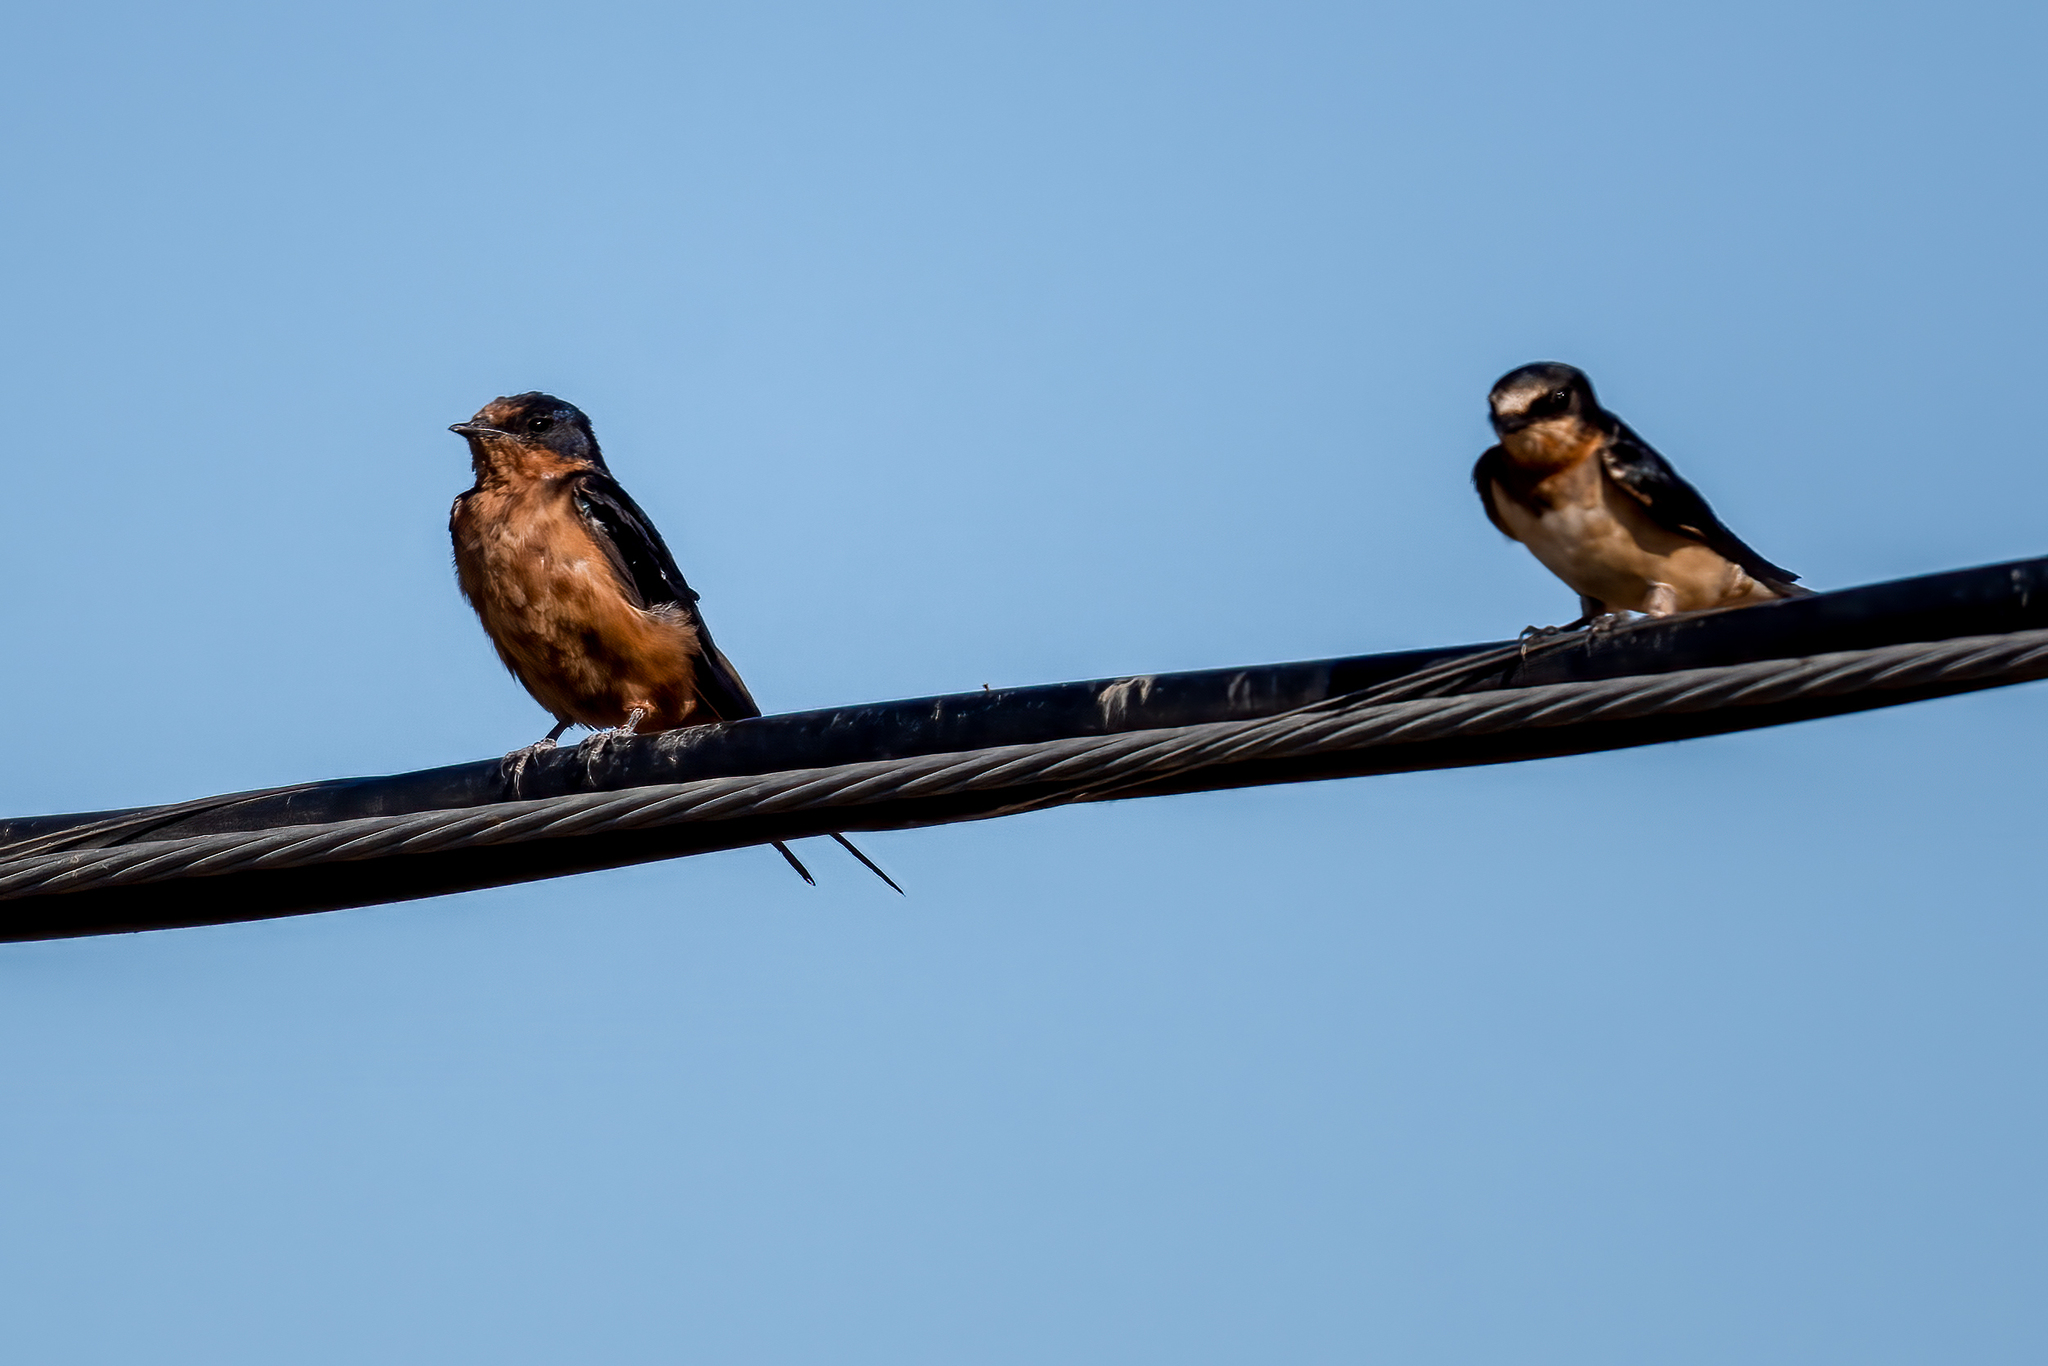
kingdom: Animalia
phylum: Chordata
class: Aves
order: Passeriformes
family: Hirundinidae
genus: Hirundo
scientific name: Hirundo rustica
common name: Barn swallow
